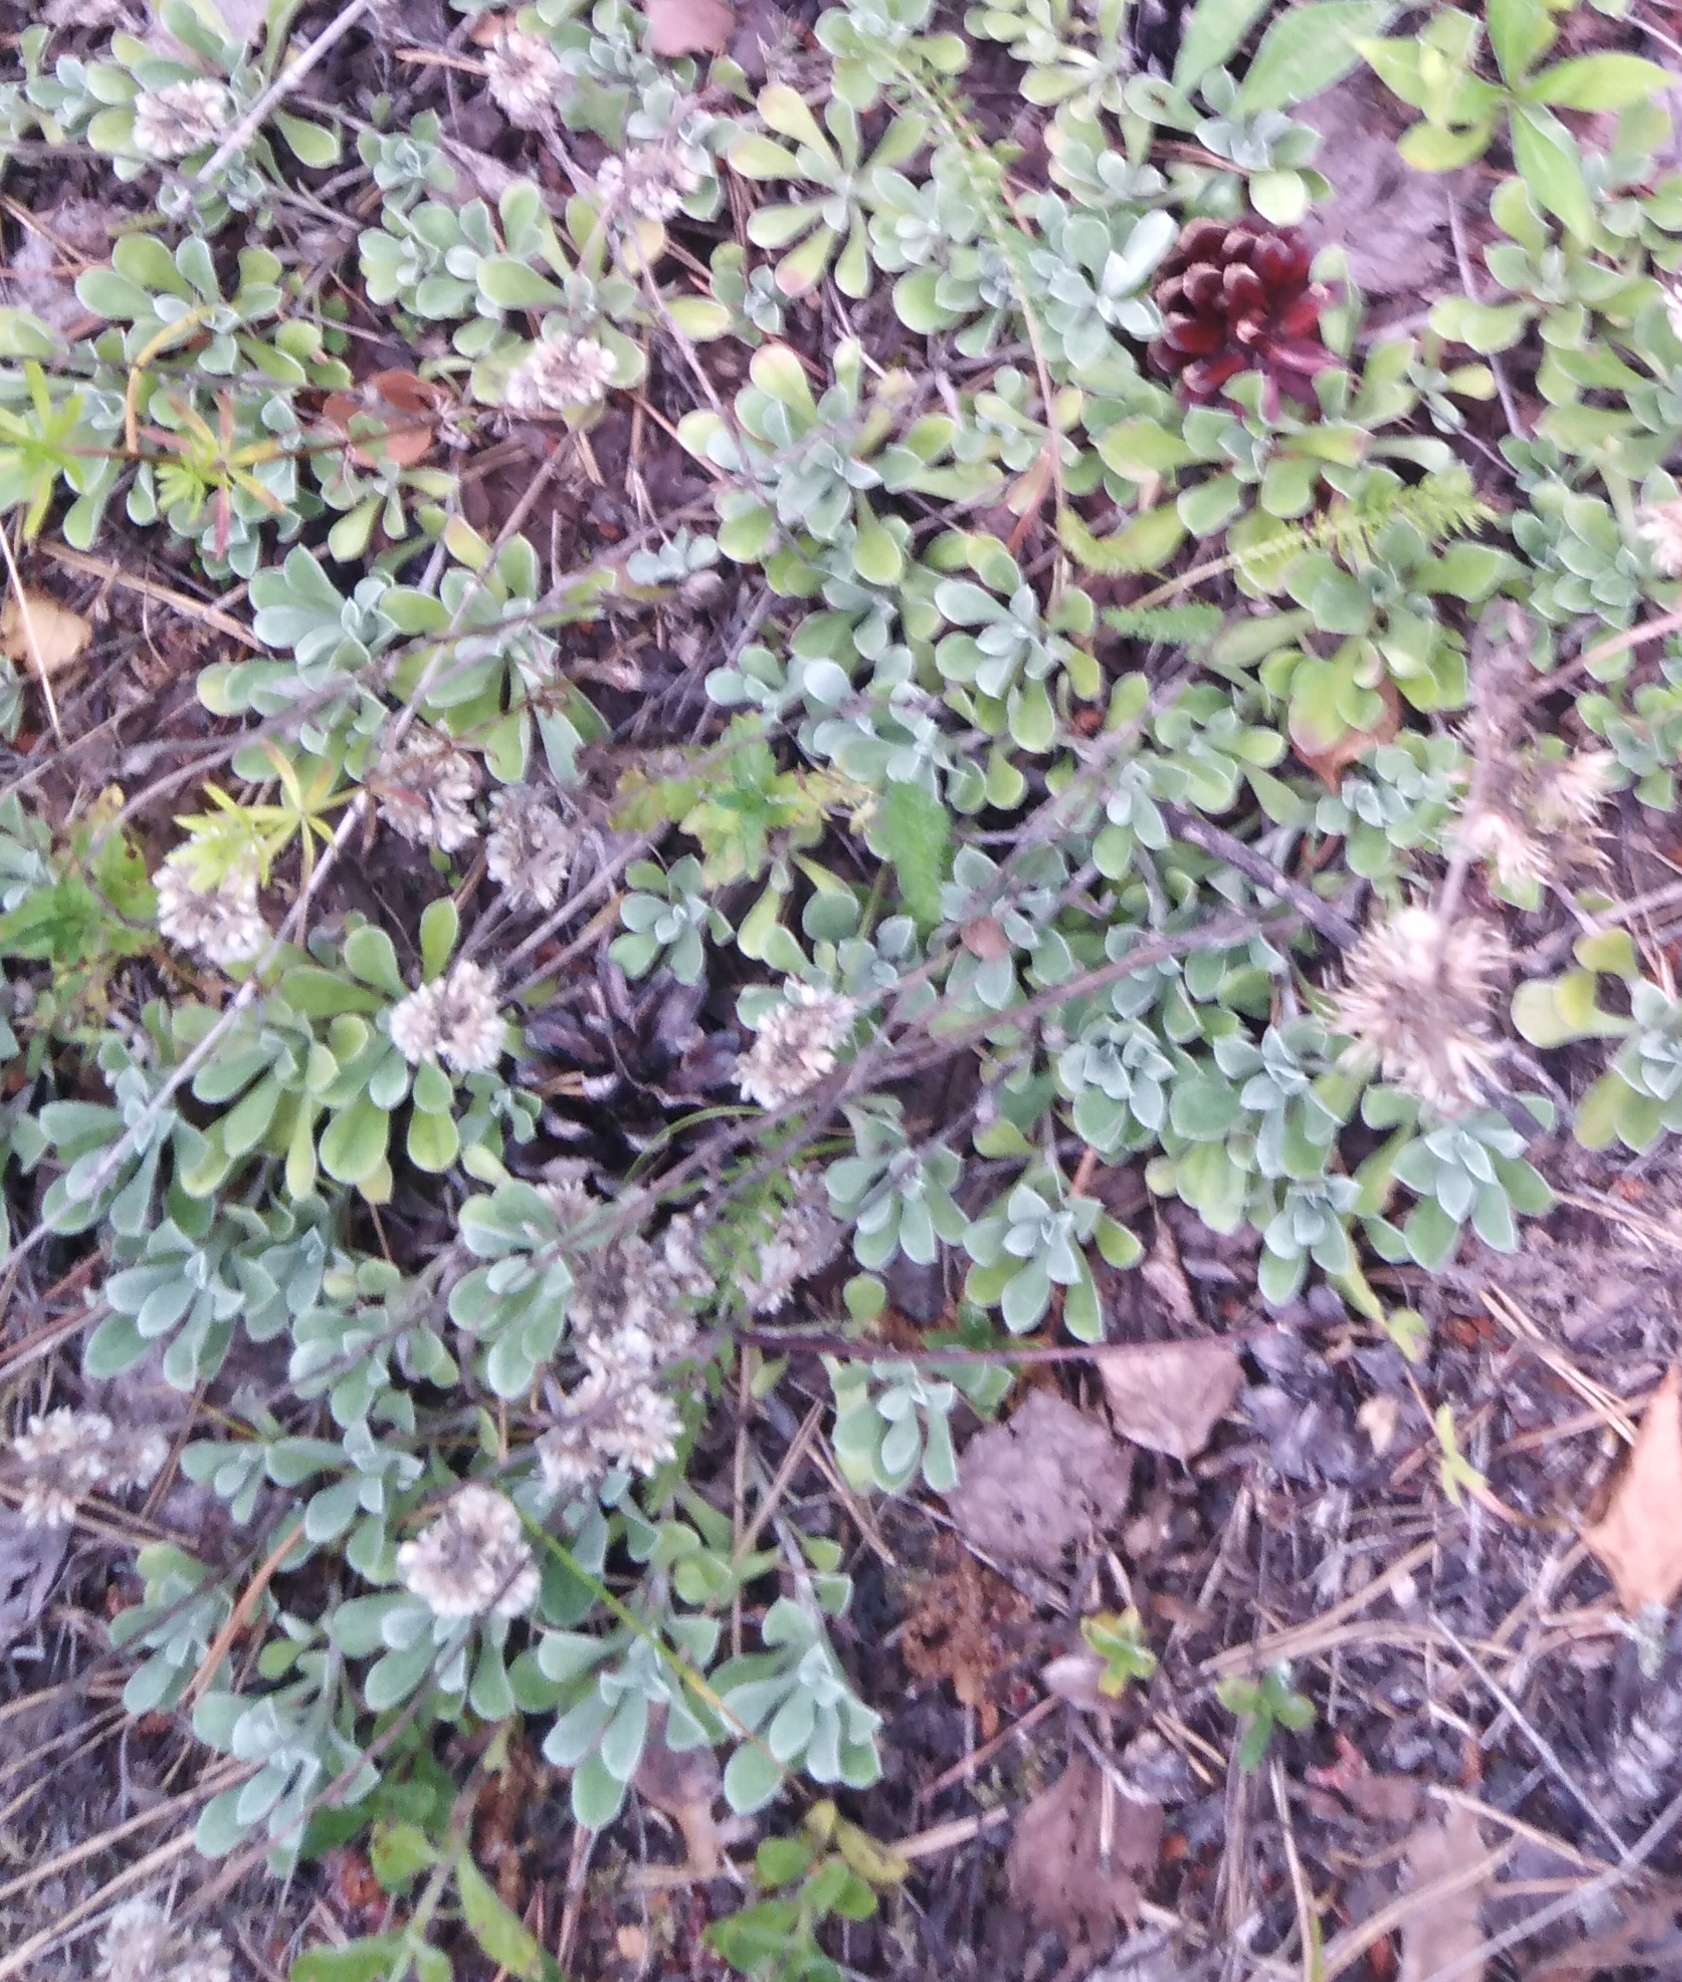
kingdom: Plantae
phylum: Tracheophyta
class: Magnoliopsida
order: Asterales
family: Asteraceae
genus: Antennaria
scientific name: Antennaria dioica
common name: Mountain everlasting
